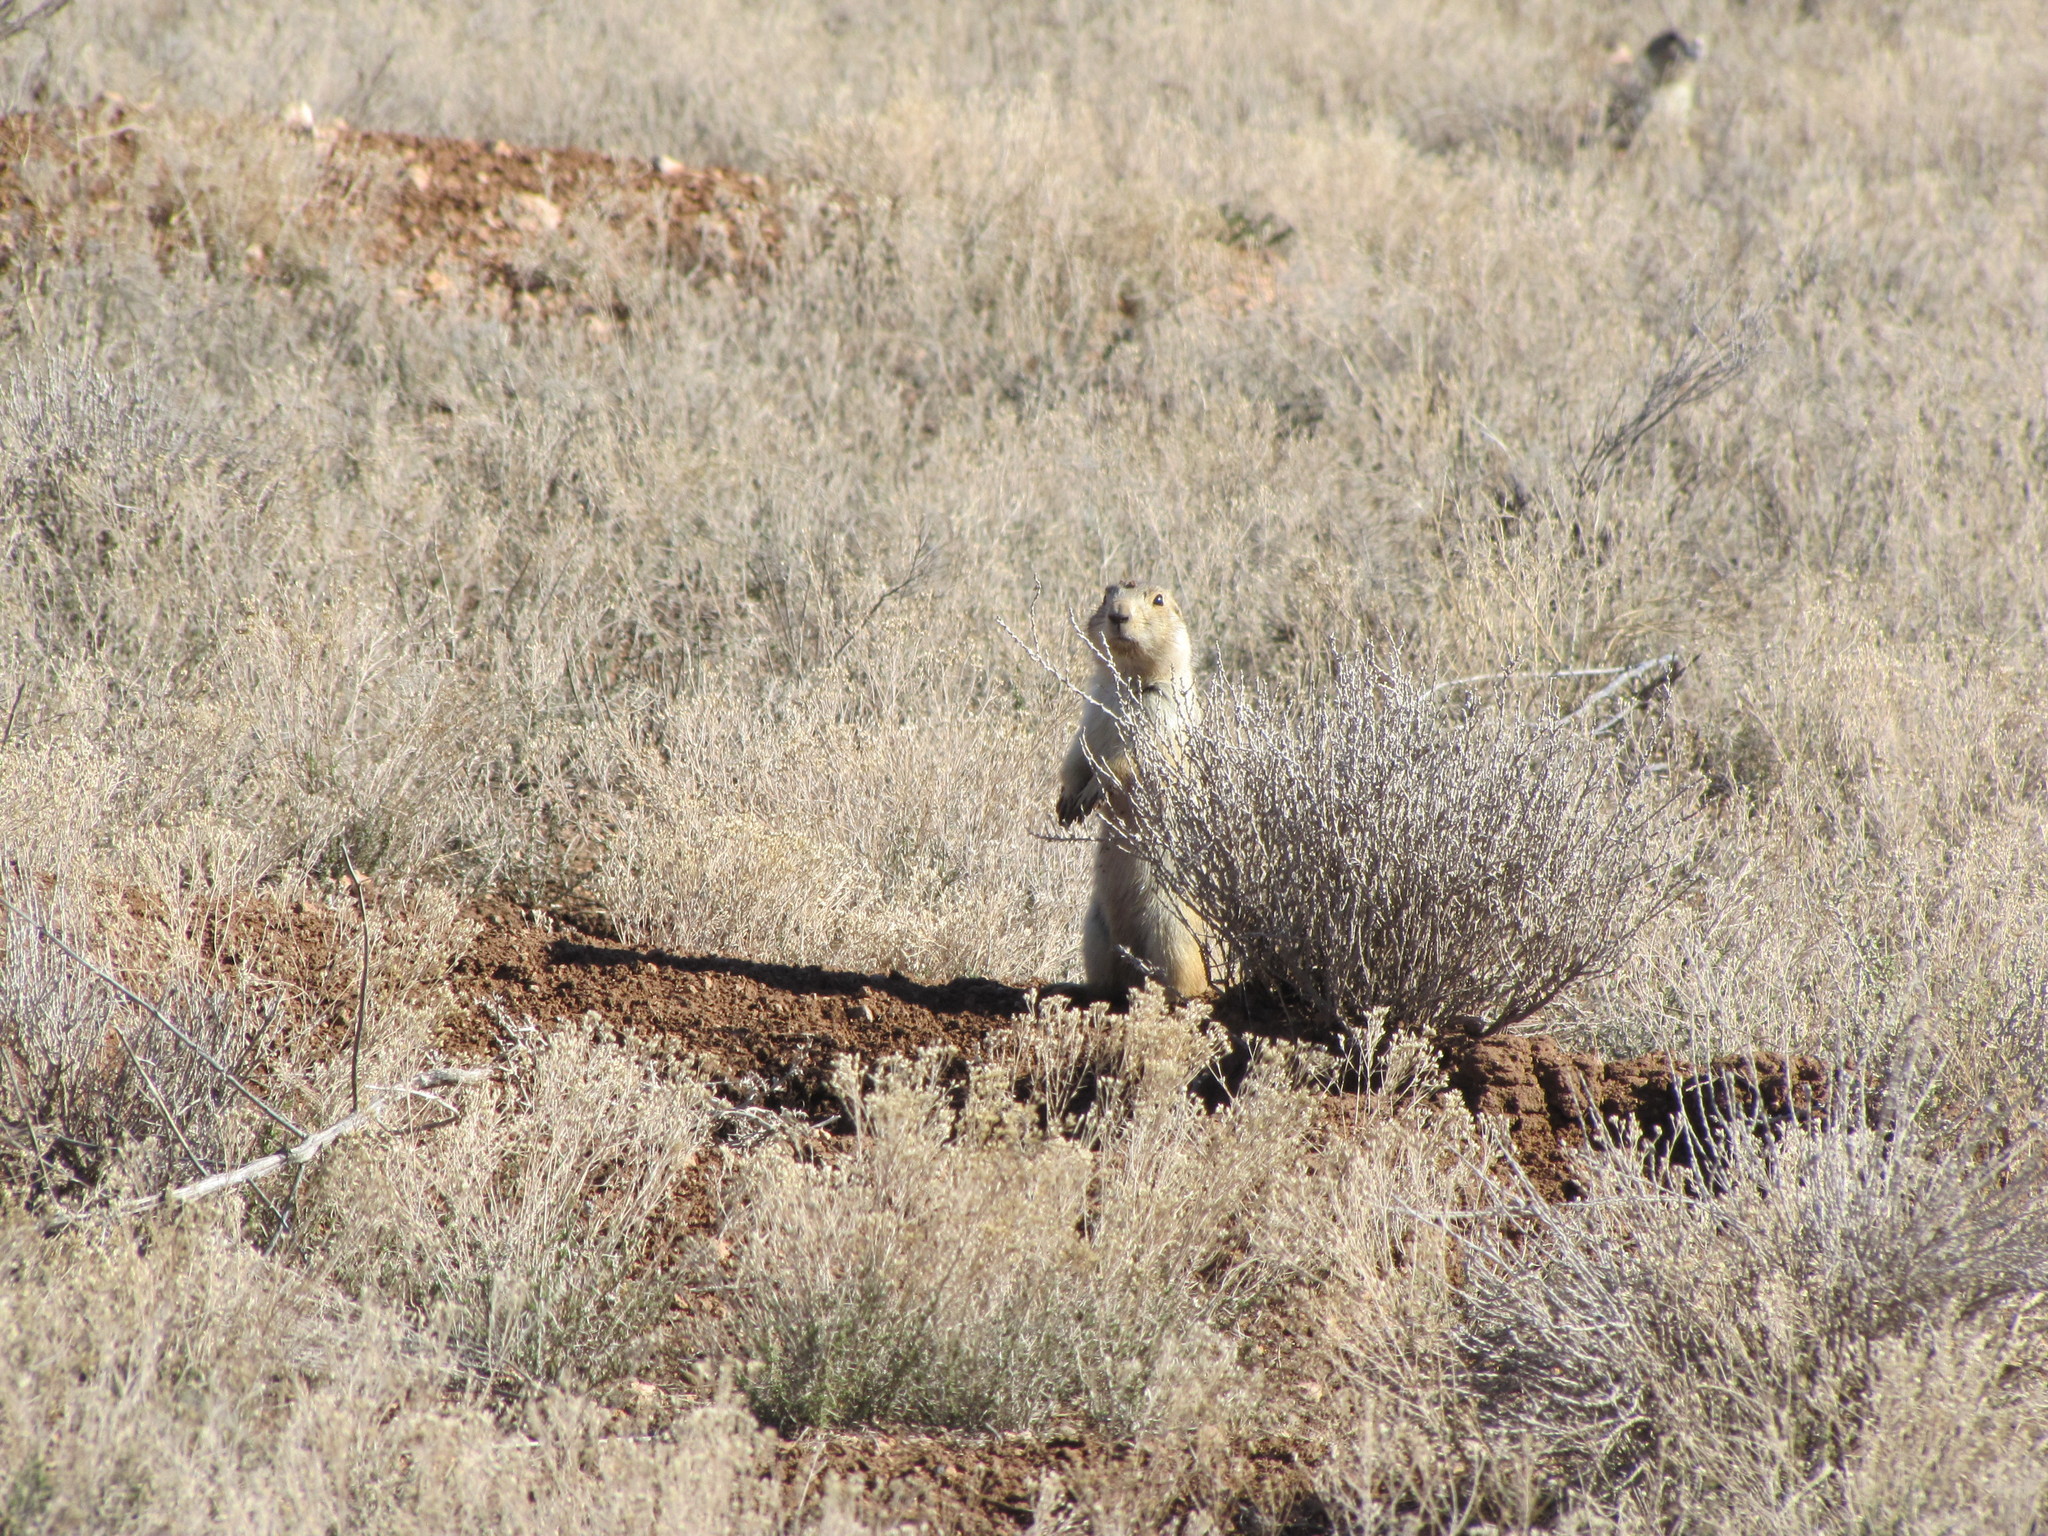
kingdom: Animalia
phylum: Chordata
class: Mammalia
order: Rodentia
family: Sciuridae
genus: Cynomys
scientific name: Cynomys gunnisoni
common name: Gunnison's prairie dog
